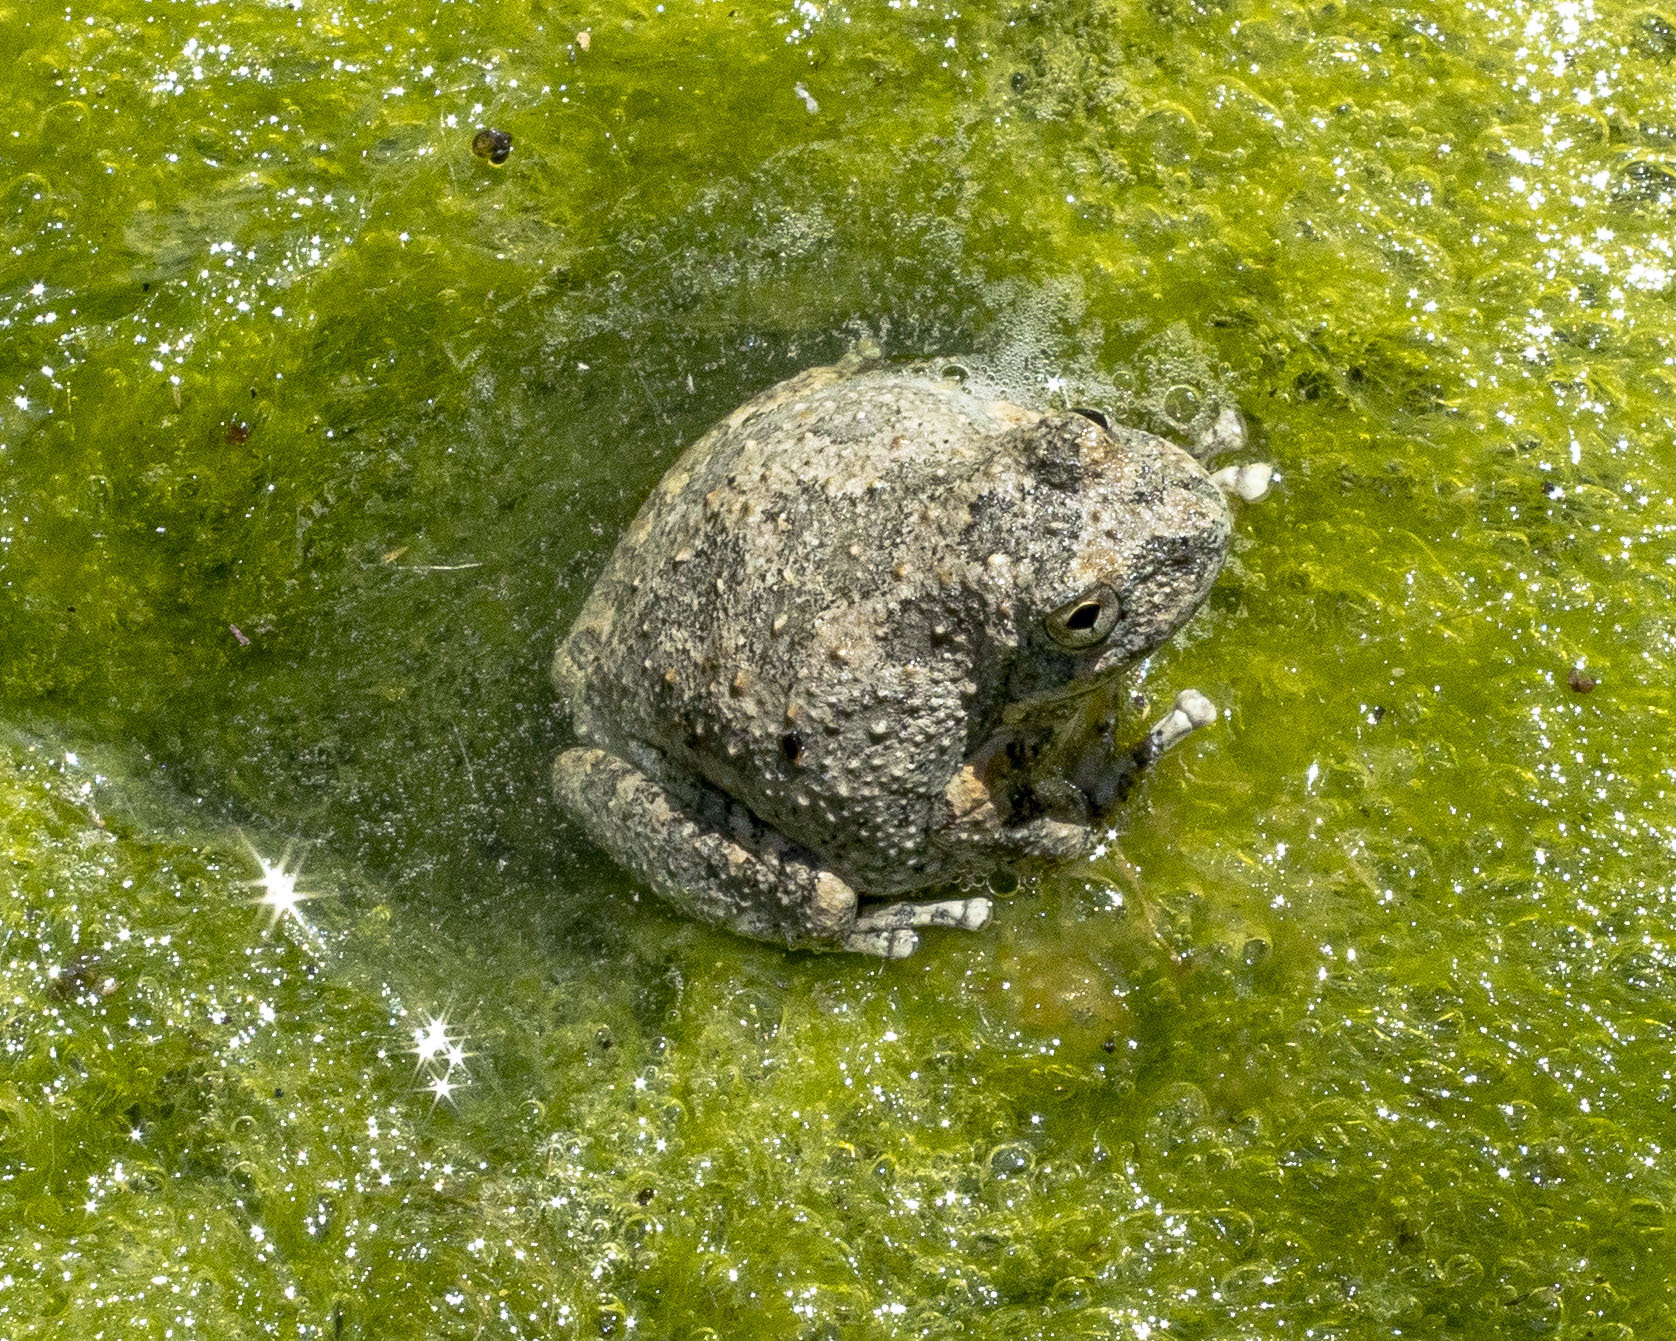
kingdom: Animalia
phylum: Chordata
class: Amphibia
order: Anura
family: Hylidae
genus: Pseudacris
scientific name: Pseudacris cadaverina
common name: California chorus frog
